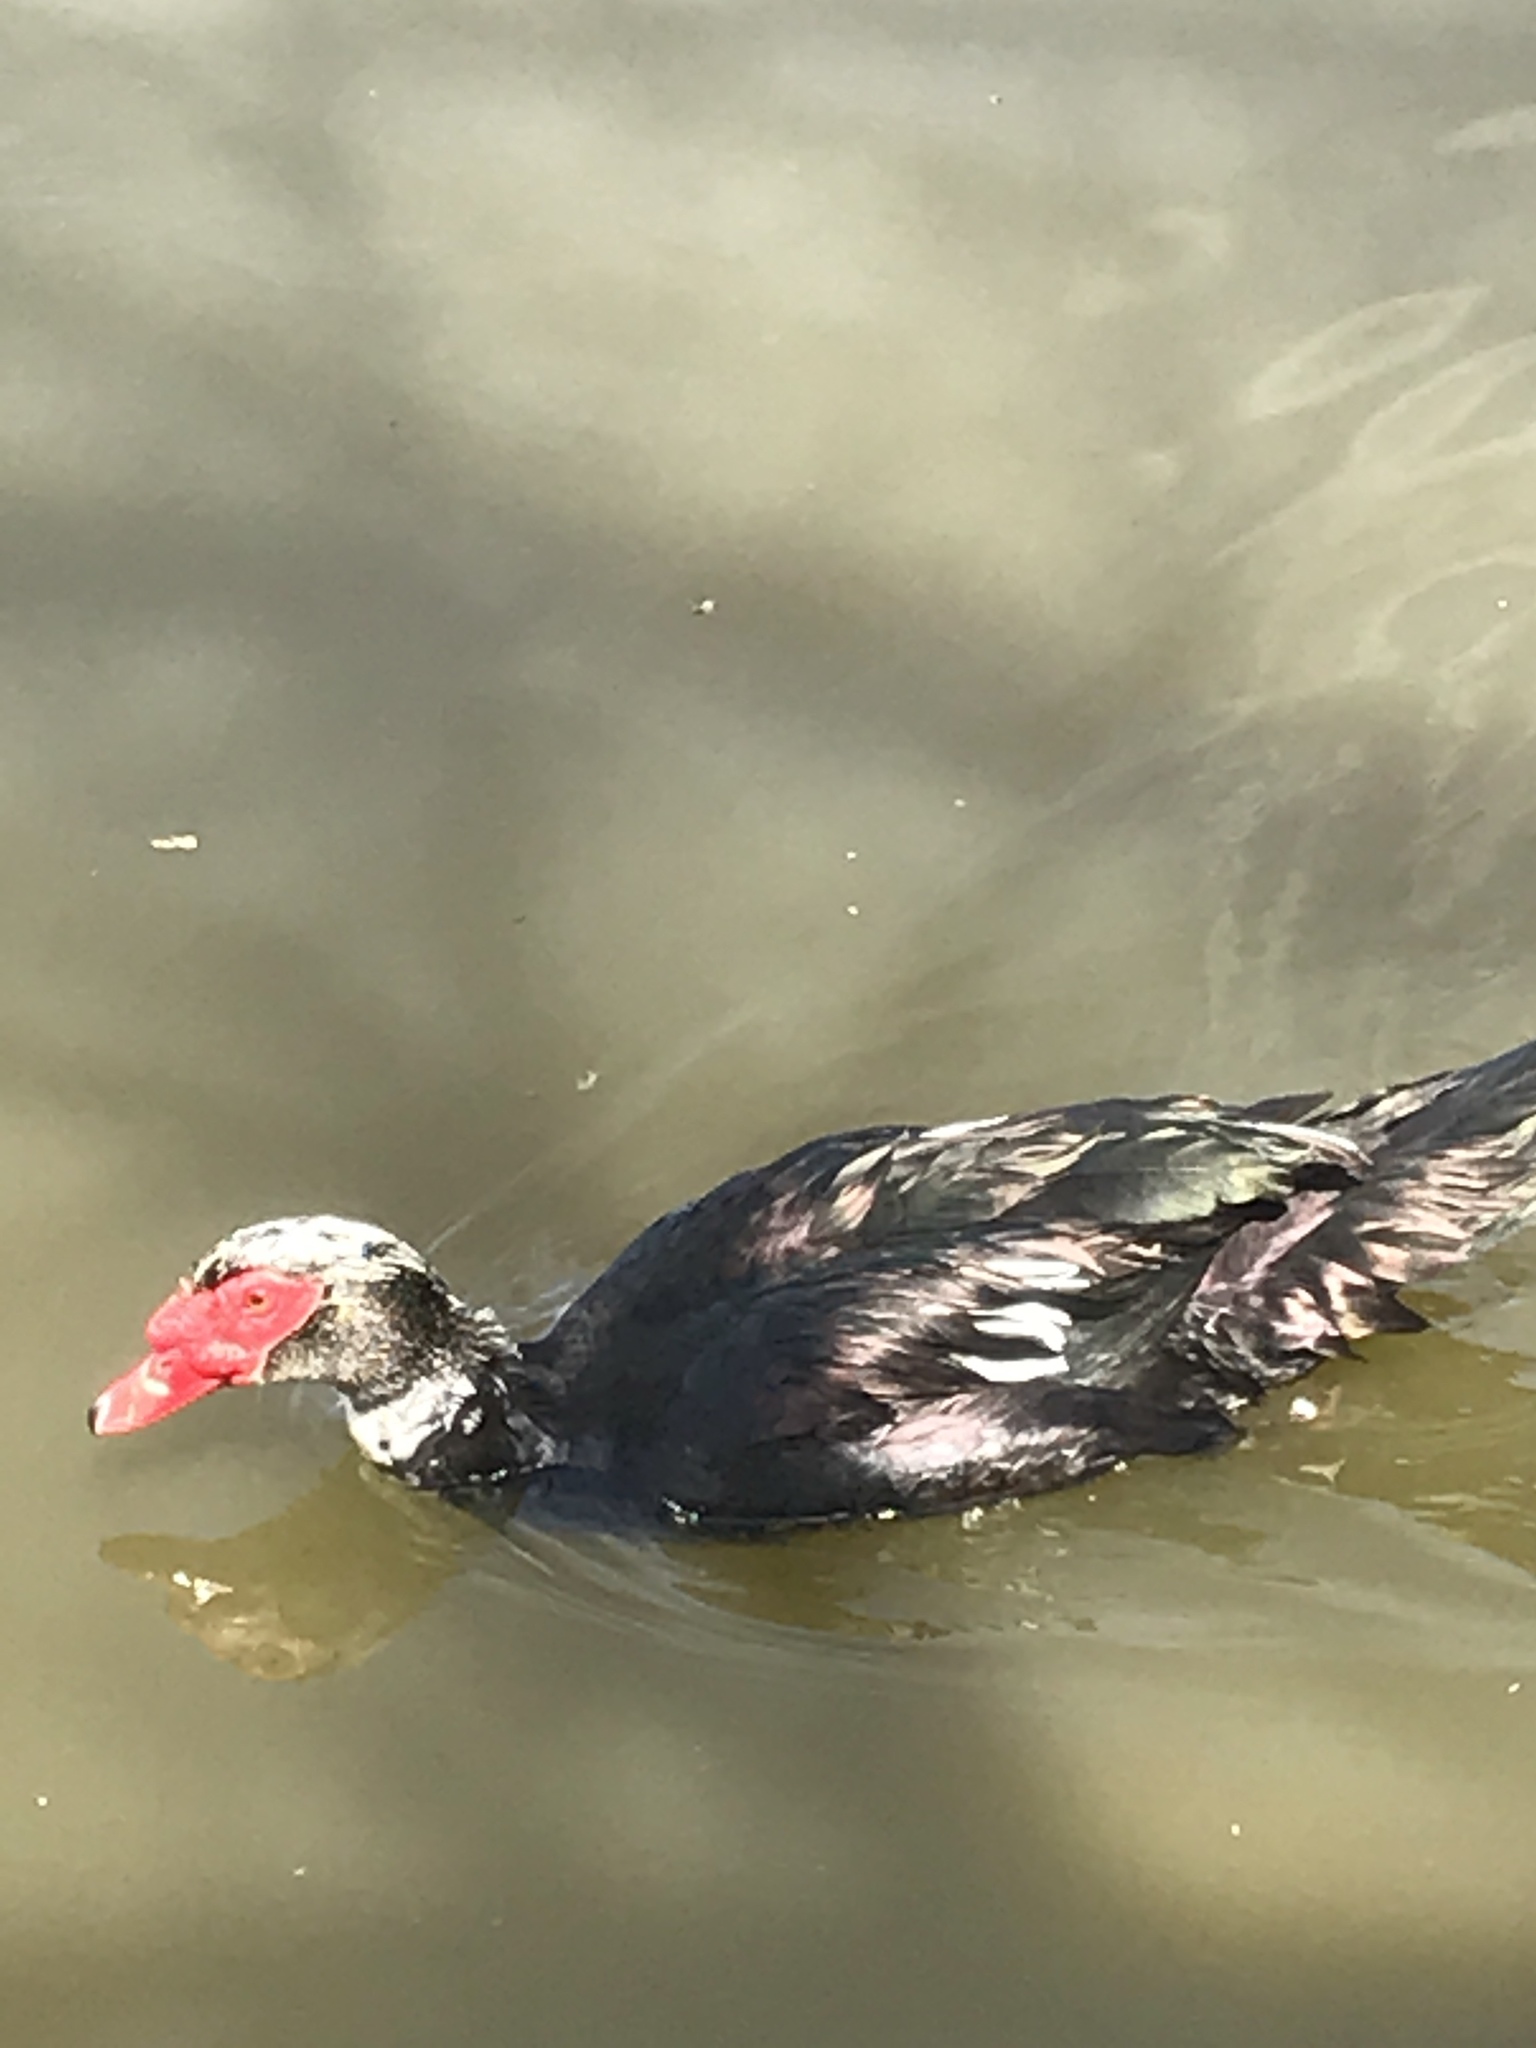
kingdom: Animalia
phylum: Chordata
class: Aves
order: Anseriformes
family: Anatidae
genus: Cairina
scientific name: Cairina moschata
